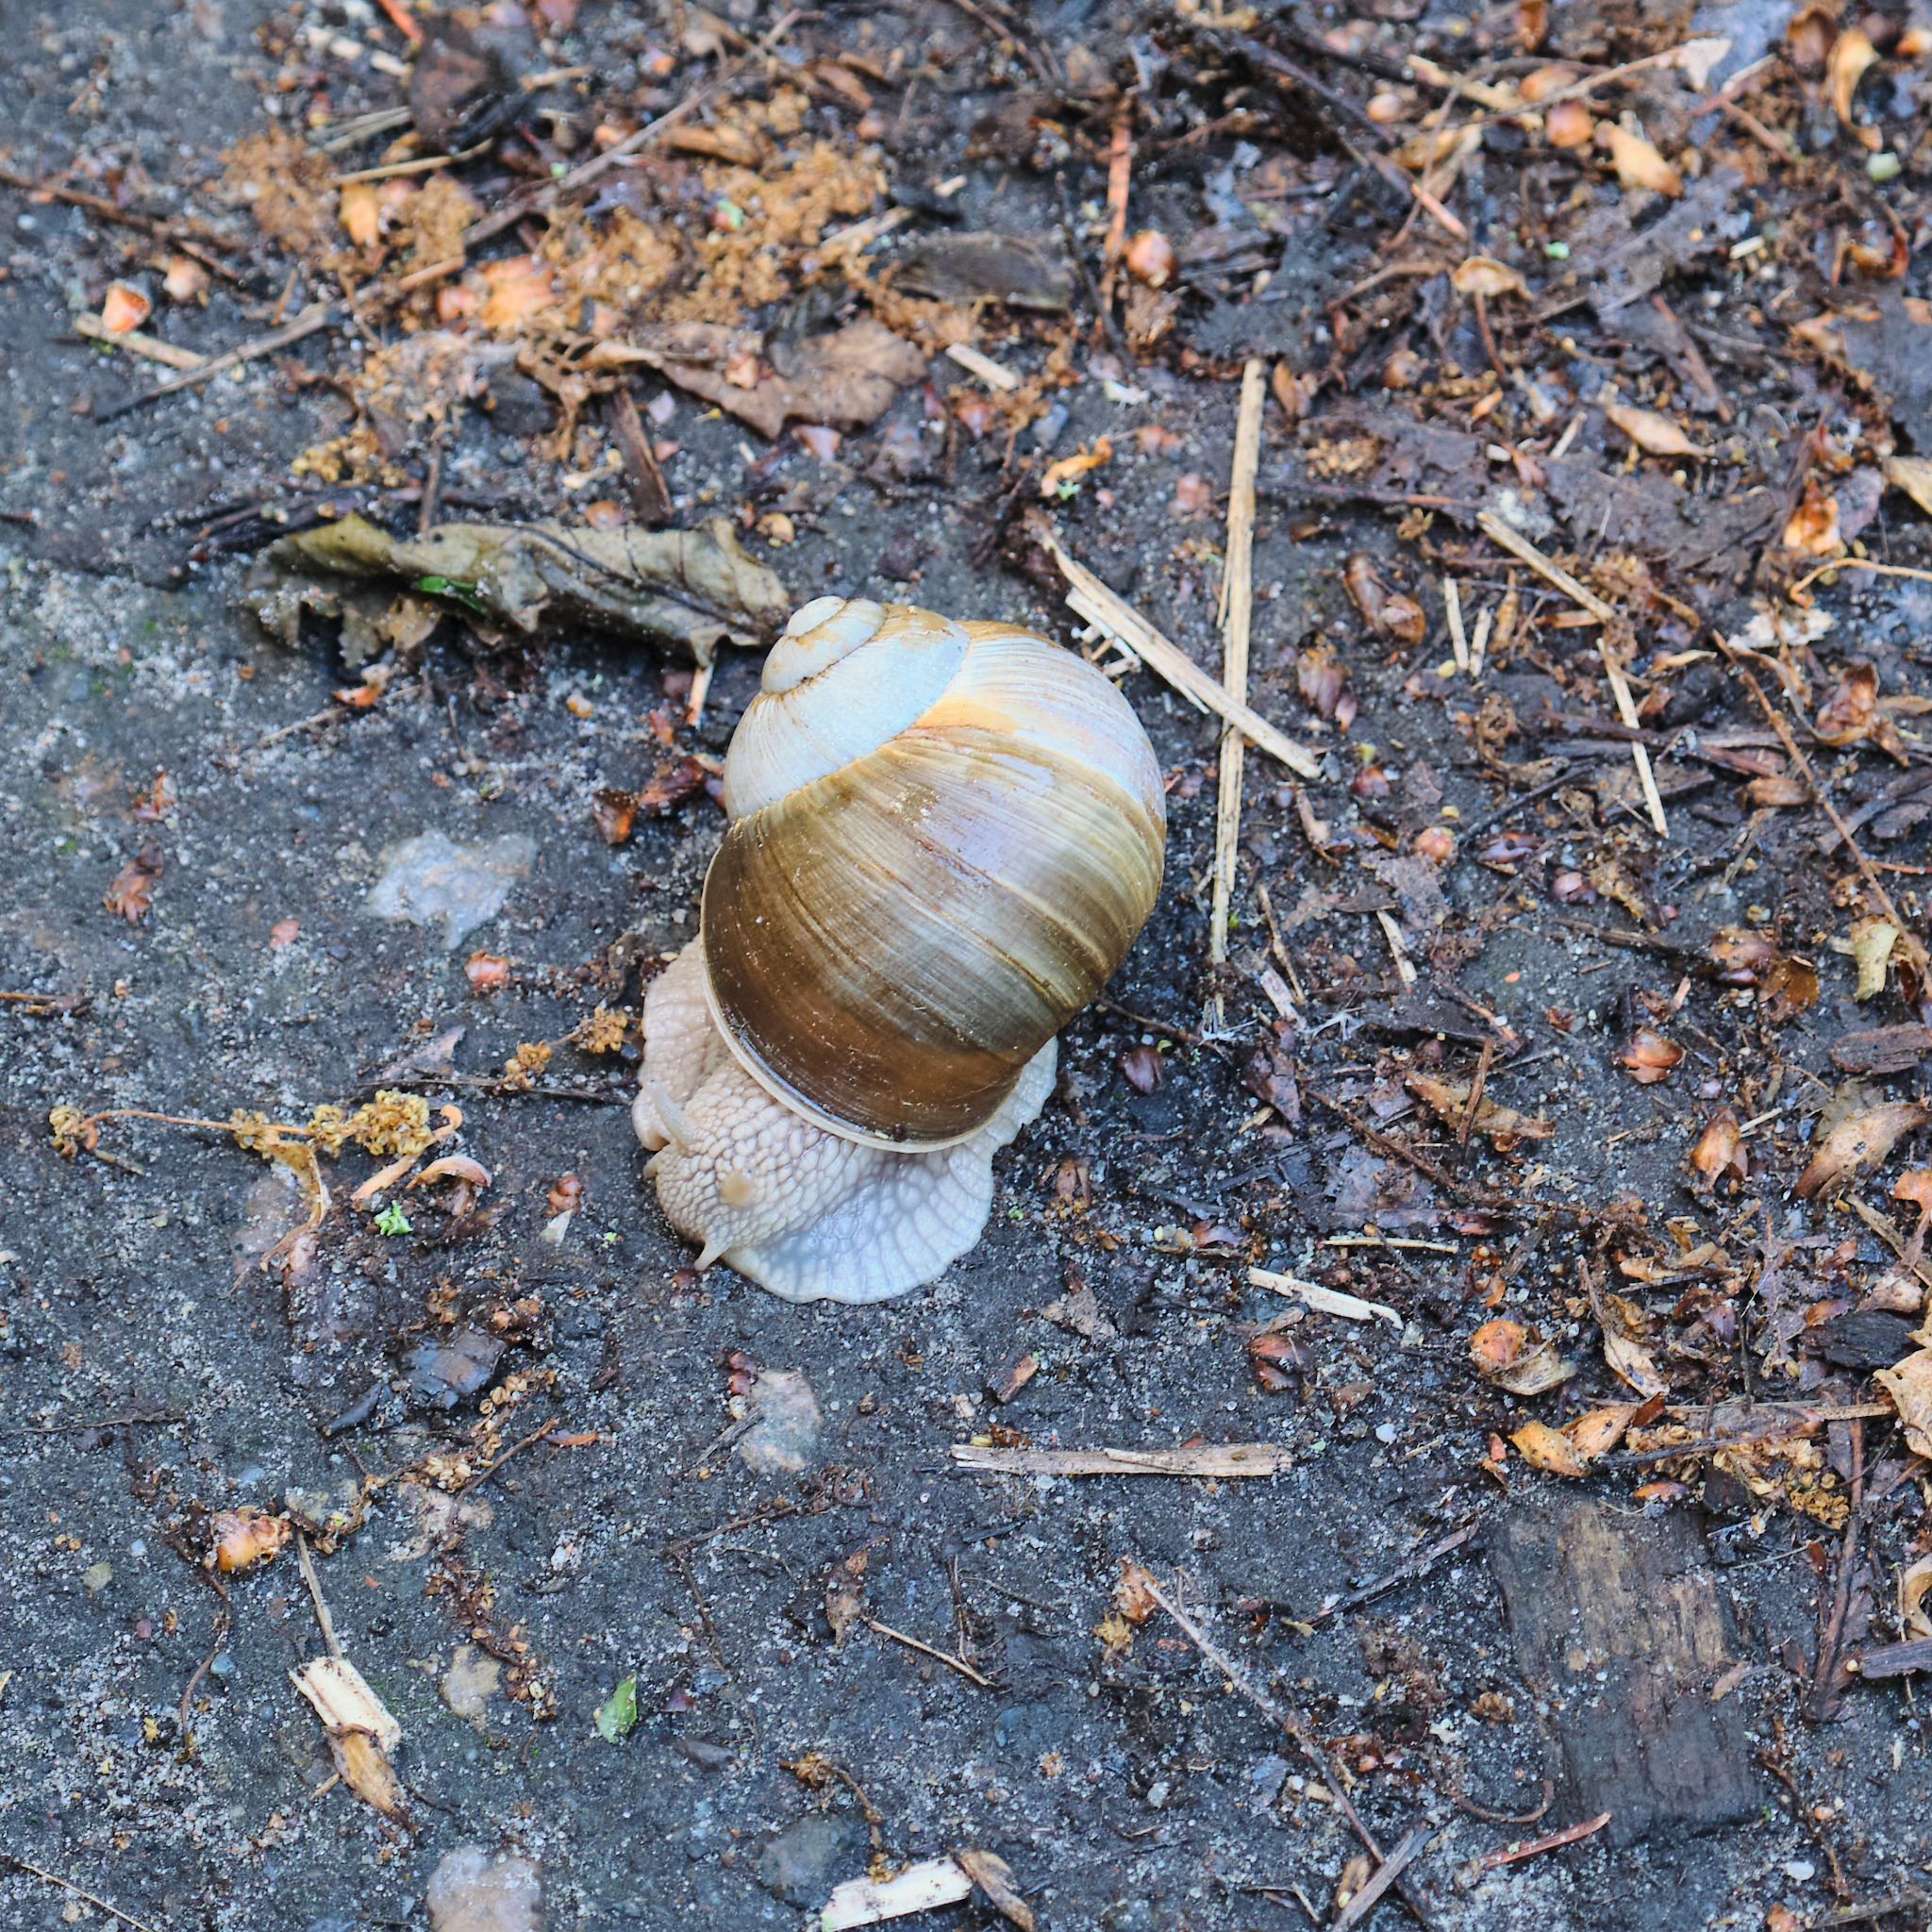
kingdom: Animalia
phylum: Mollusca
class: Gastropoda
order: Stylommatophora
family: Helicidae
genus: Helix
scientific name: Helix pomatia
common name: Roman snail
